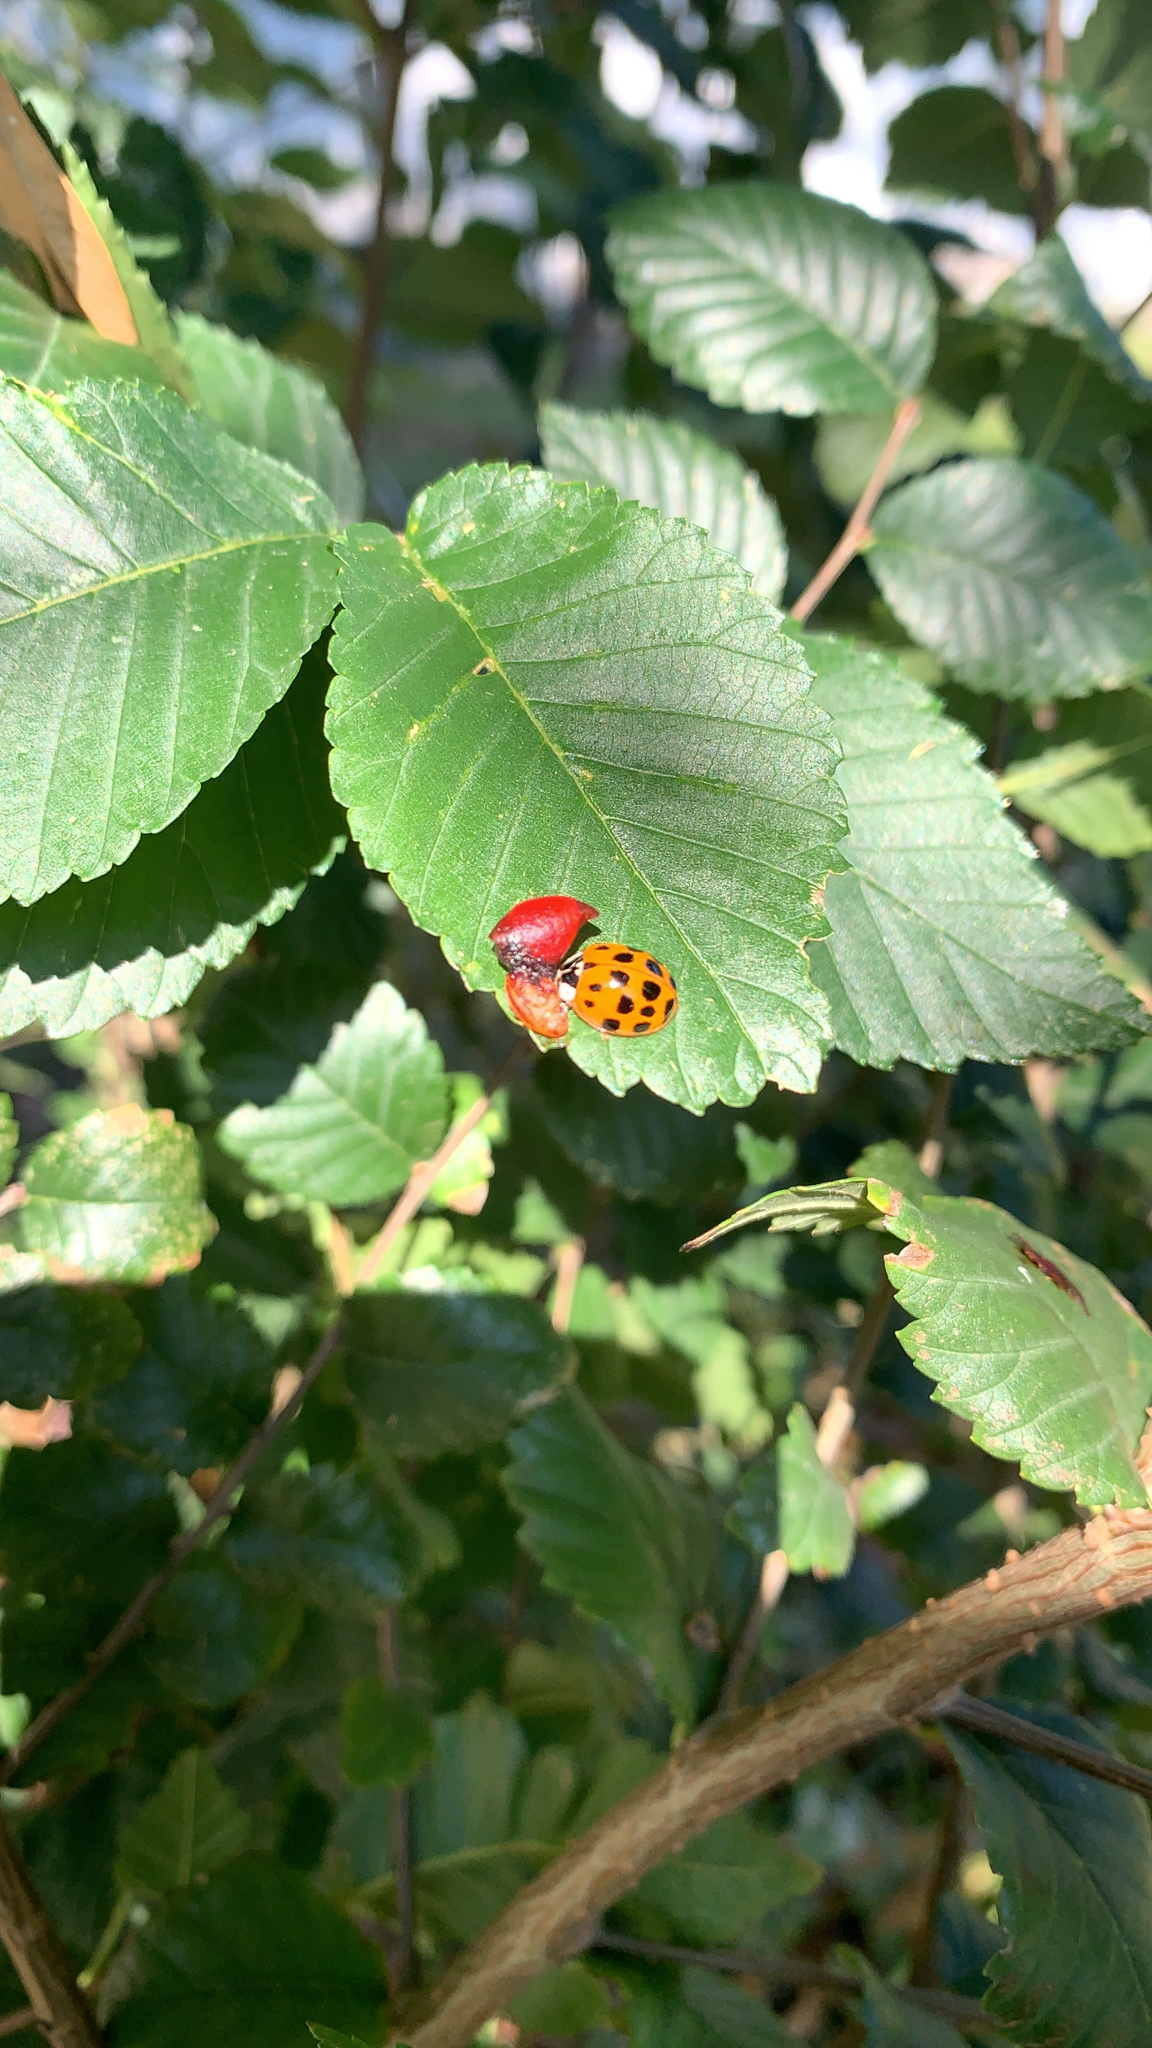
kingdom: Animalia
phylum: Arthropoda
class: Insecta
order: Coleoptera
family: Coccinellidae
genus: Harmonia
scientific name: Harmonia axyridis
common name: Harlequin ladybird
